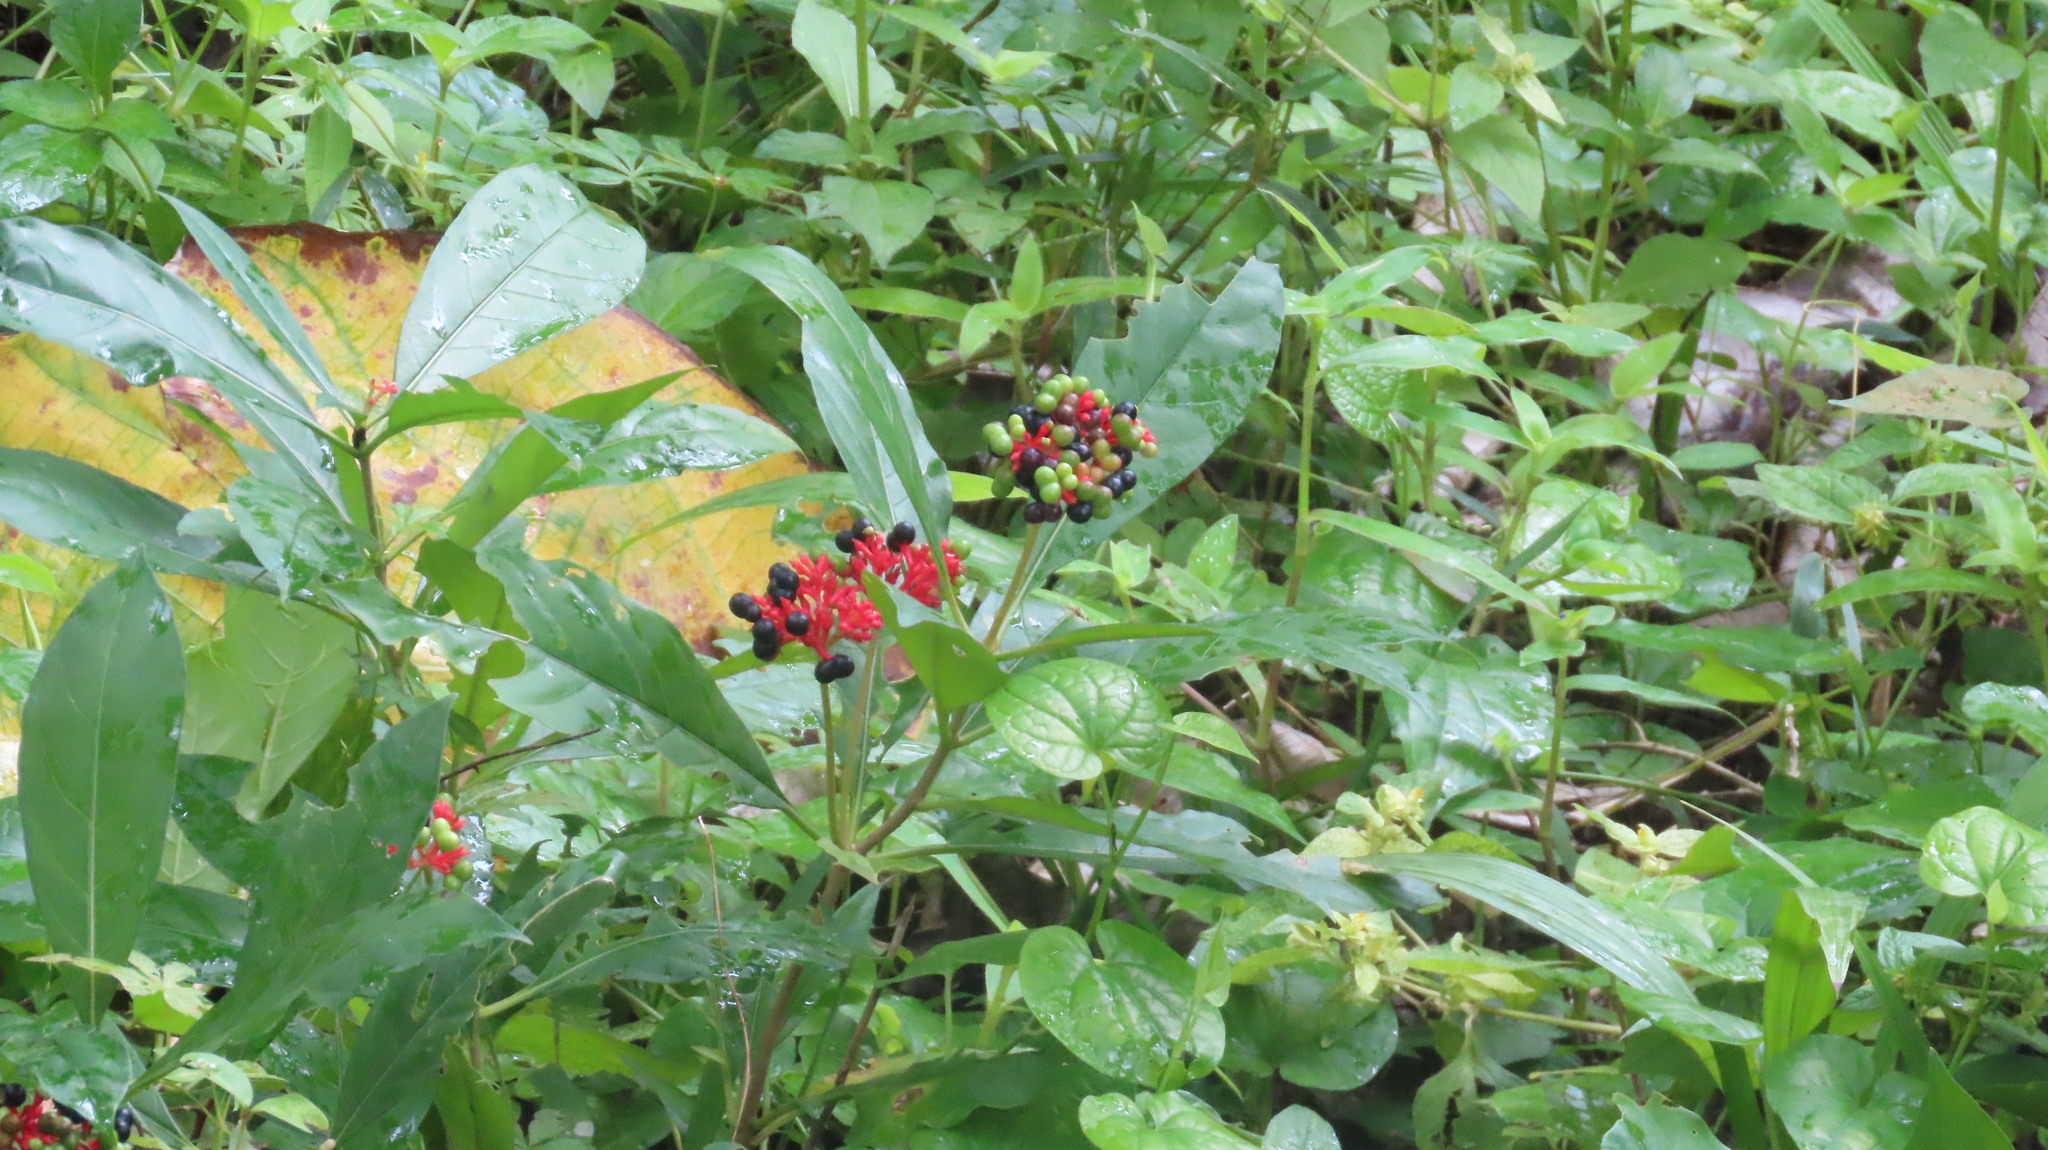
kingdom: Plantae
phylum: Tracheophyta
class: Magnoliopsida
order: Gentianales
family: Apocynaceae
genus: Rauvolfia
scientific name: Rauvolfia serpentina
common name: Ajmaline
